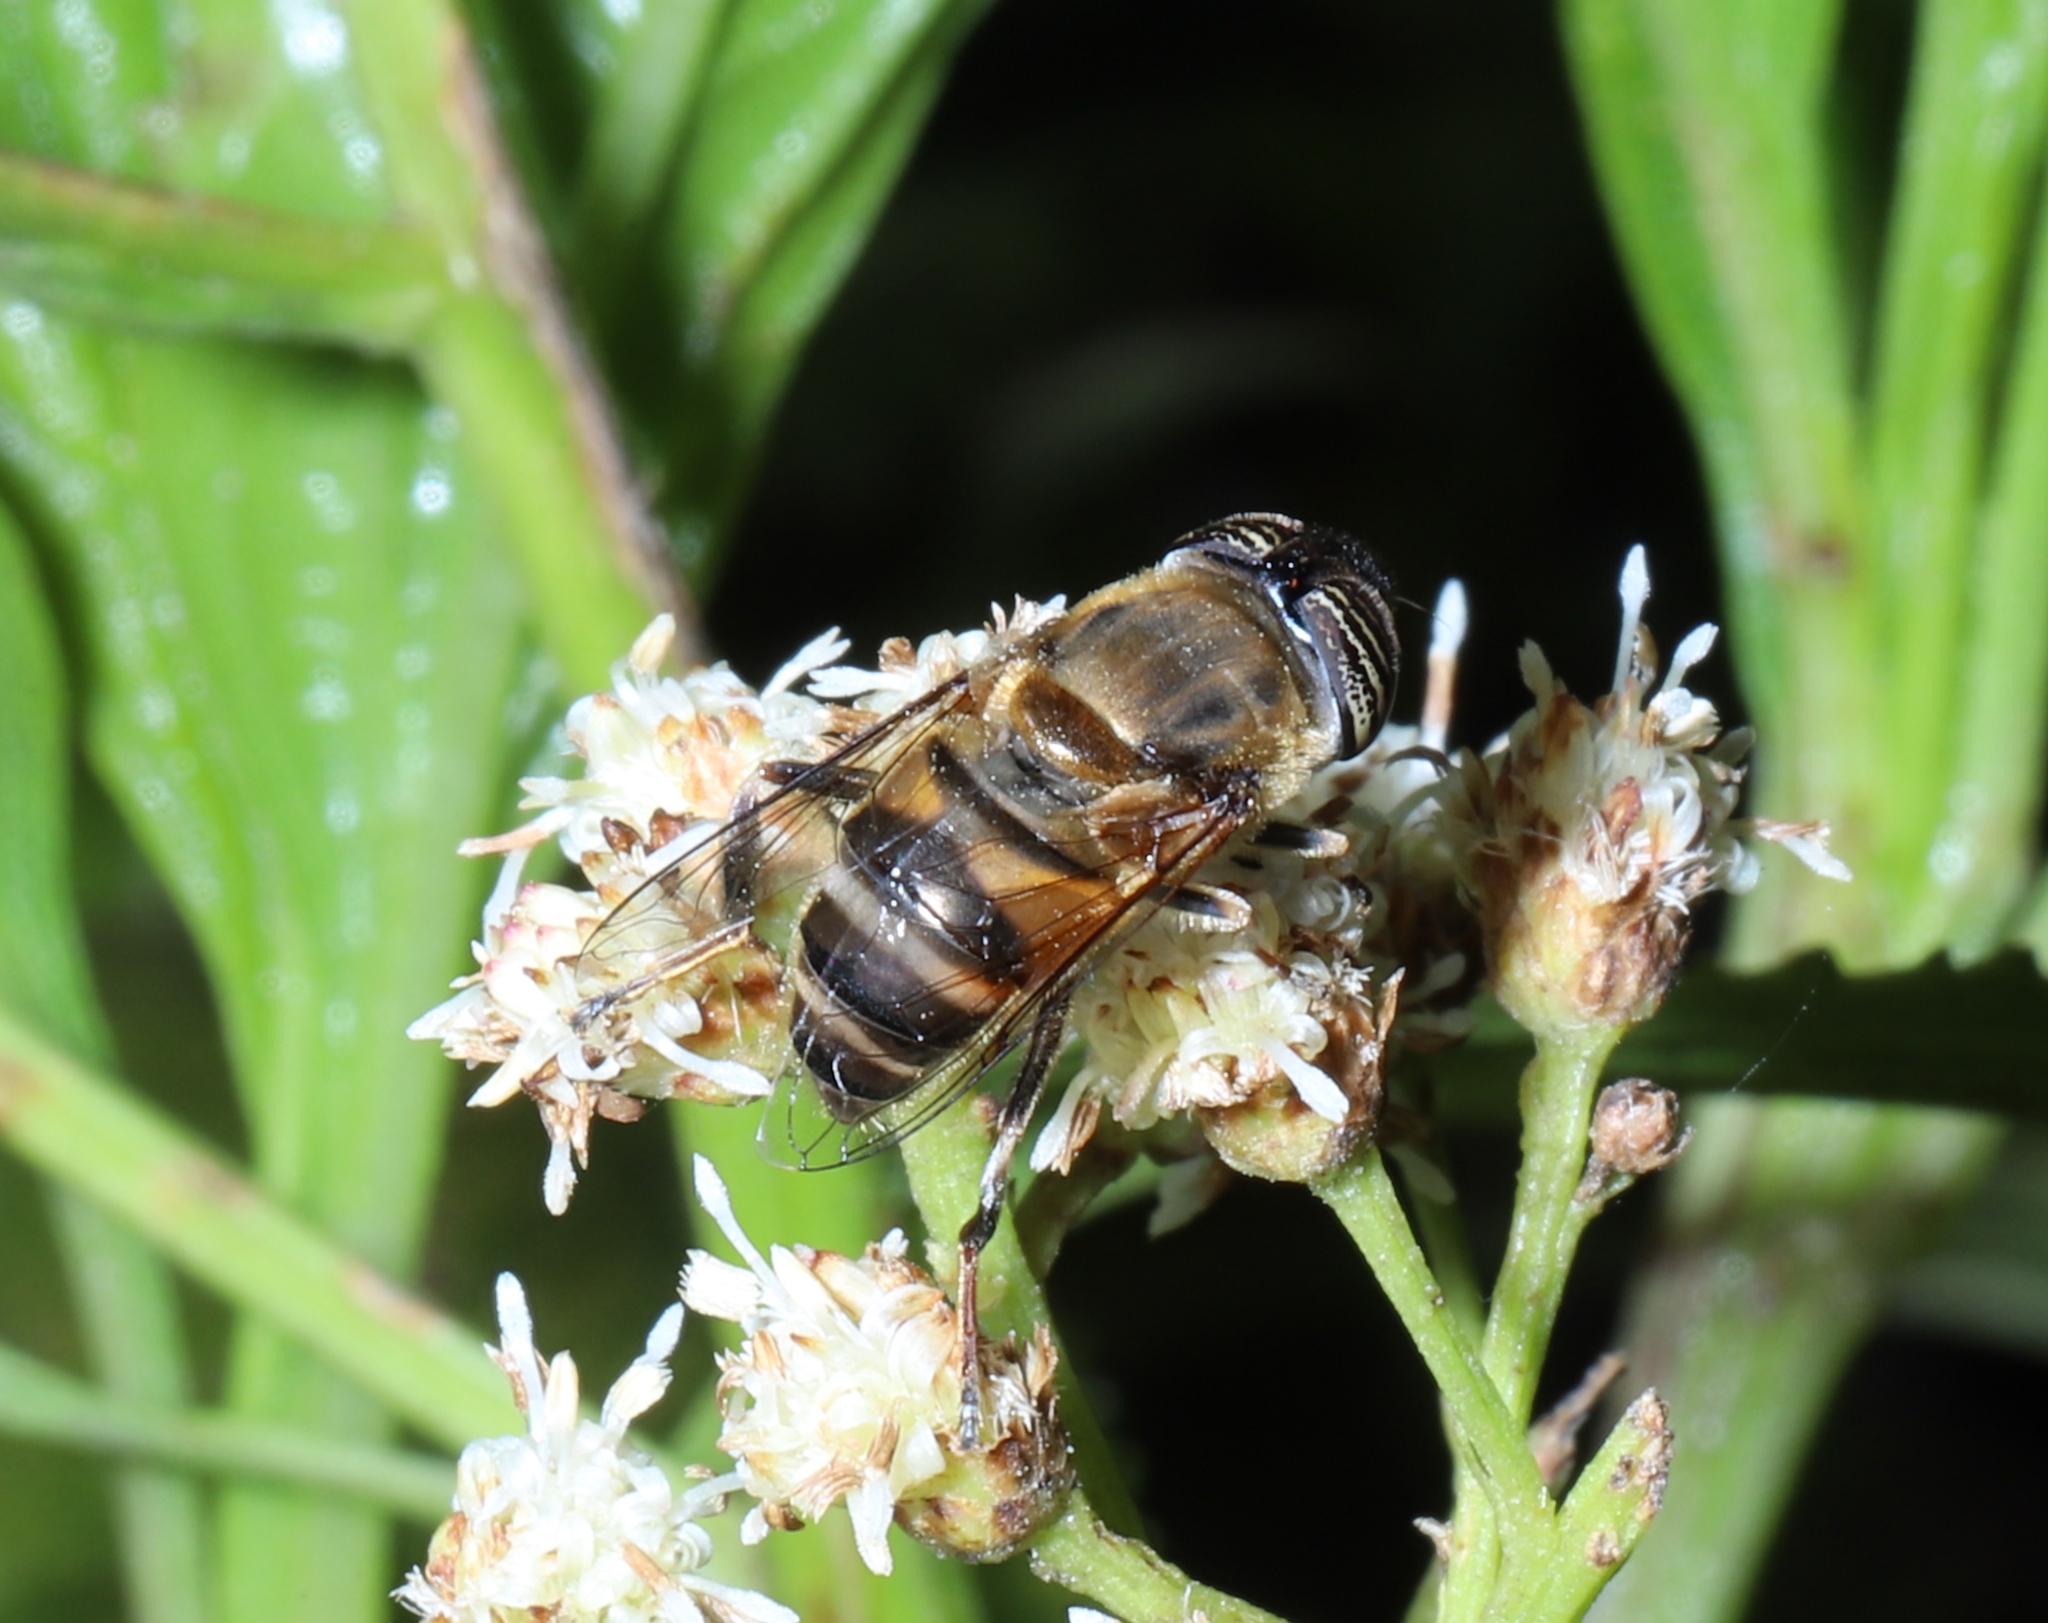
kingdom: Animalia
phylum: Arthropoda
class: Insecta
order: Diptera
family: Syrphidae
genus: Eristalinus
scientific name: Eristalinus taeniops
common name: Syrphid fly
